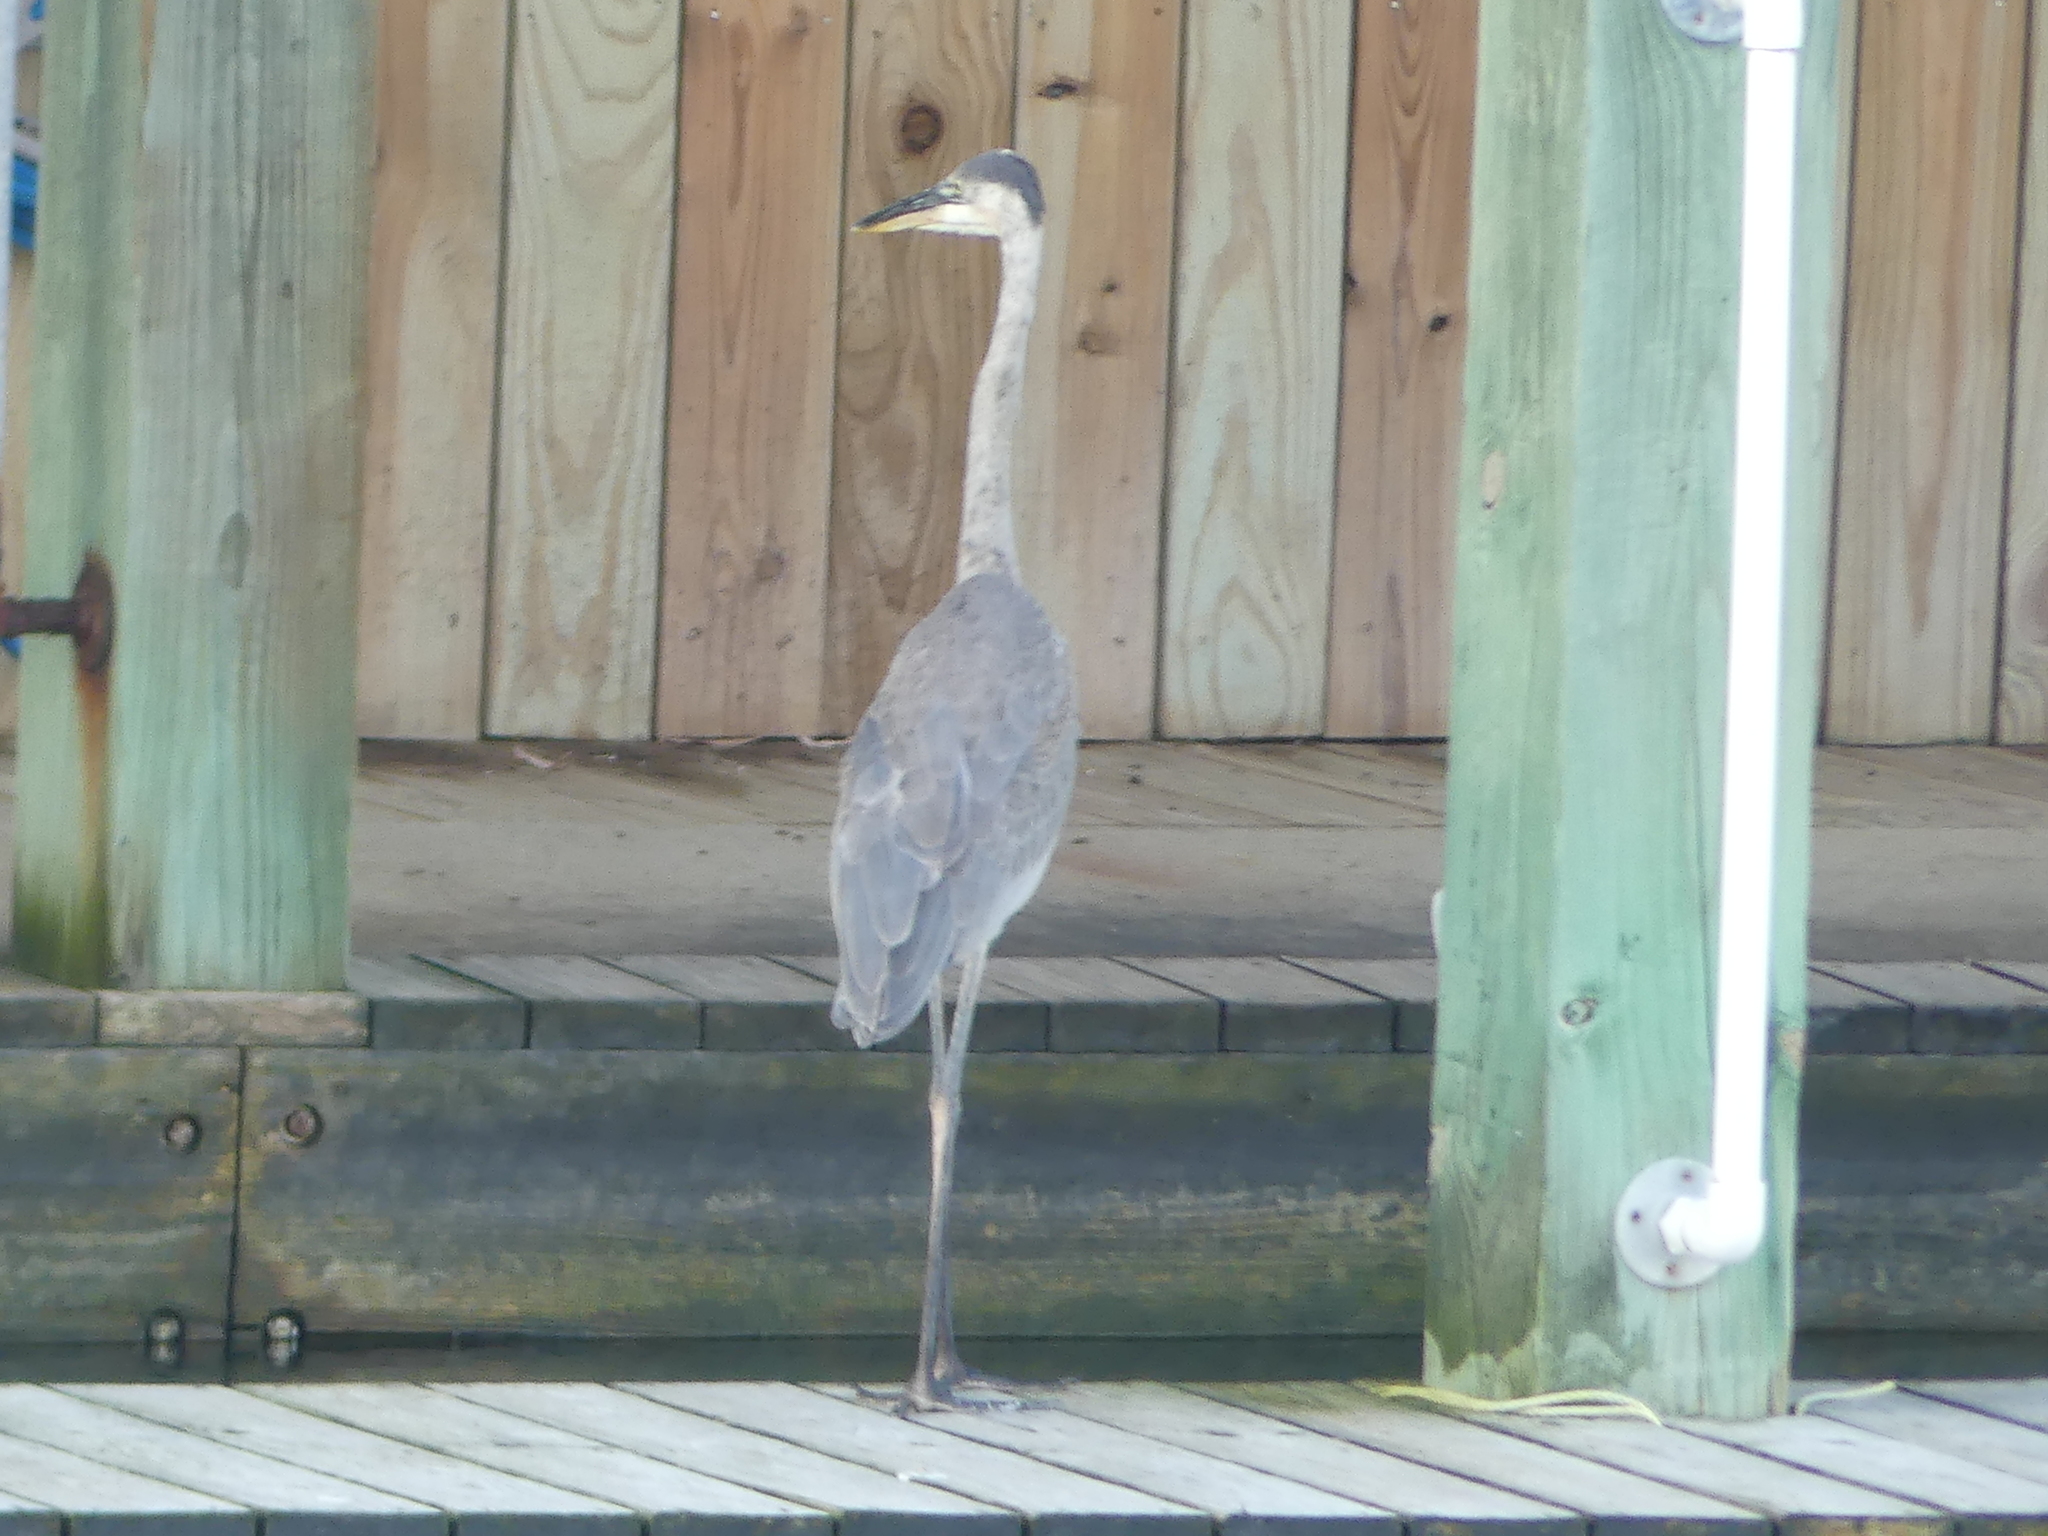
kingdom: Animalia
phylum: Chordata
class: Aves
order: Pelecaniformes
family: Ardeidae
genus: Ardea
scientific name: Ardea herodias
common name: Great blue heron
